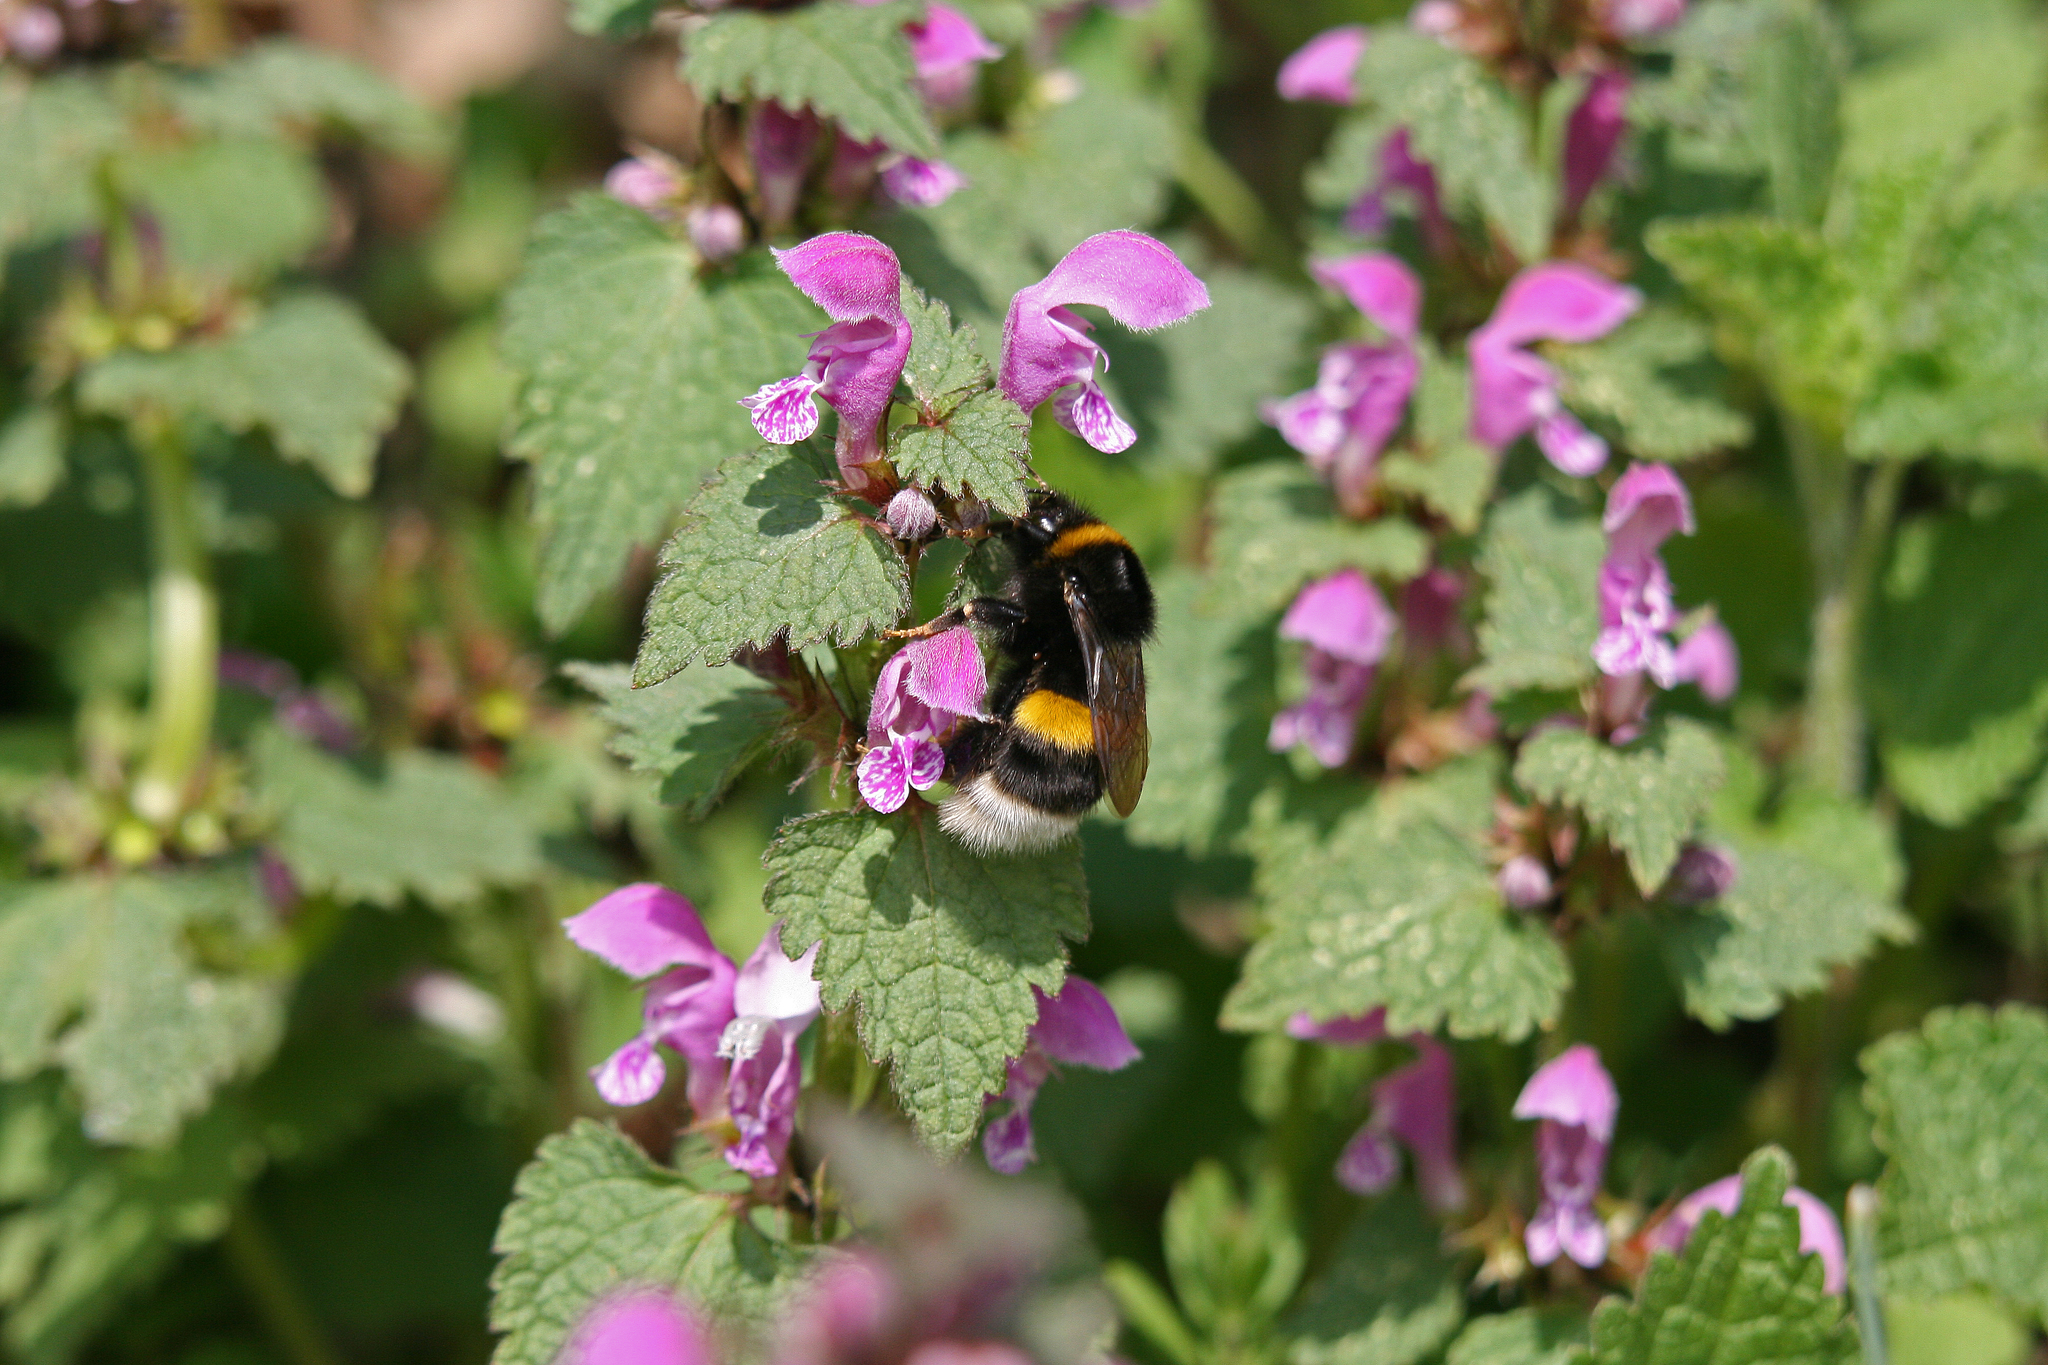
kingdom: Animalia
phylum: Arthropoda
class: Insecta
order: Hymenoptera
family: Apidae
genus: Bombus
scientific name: Bombus
